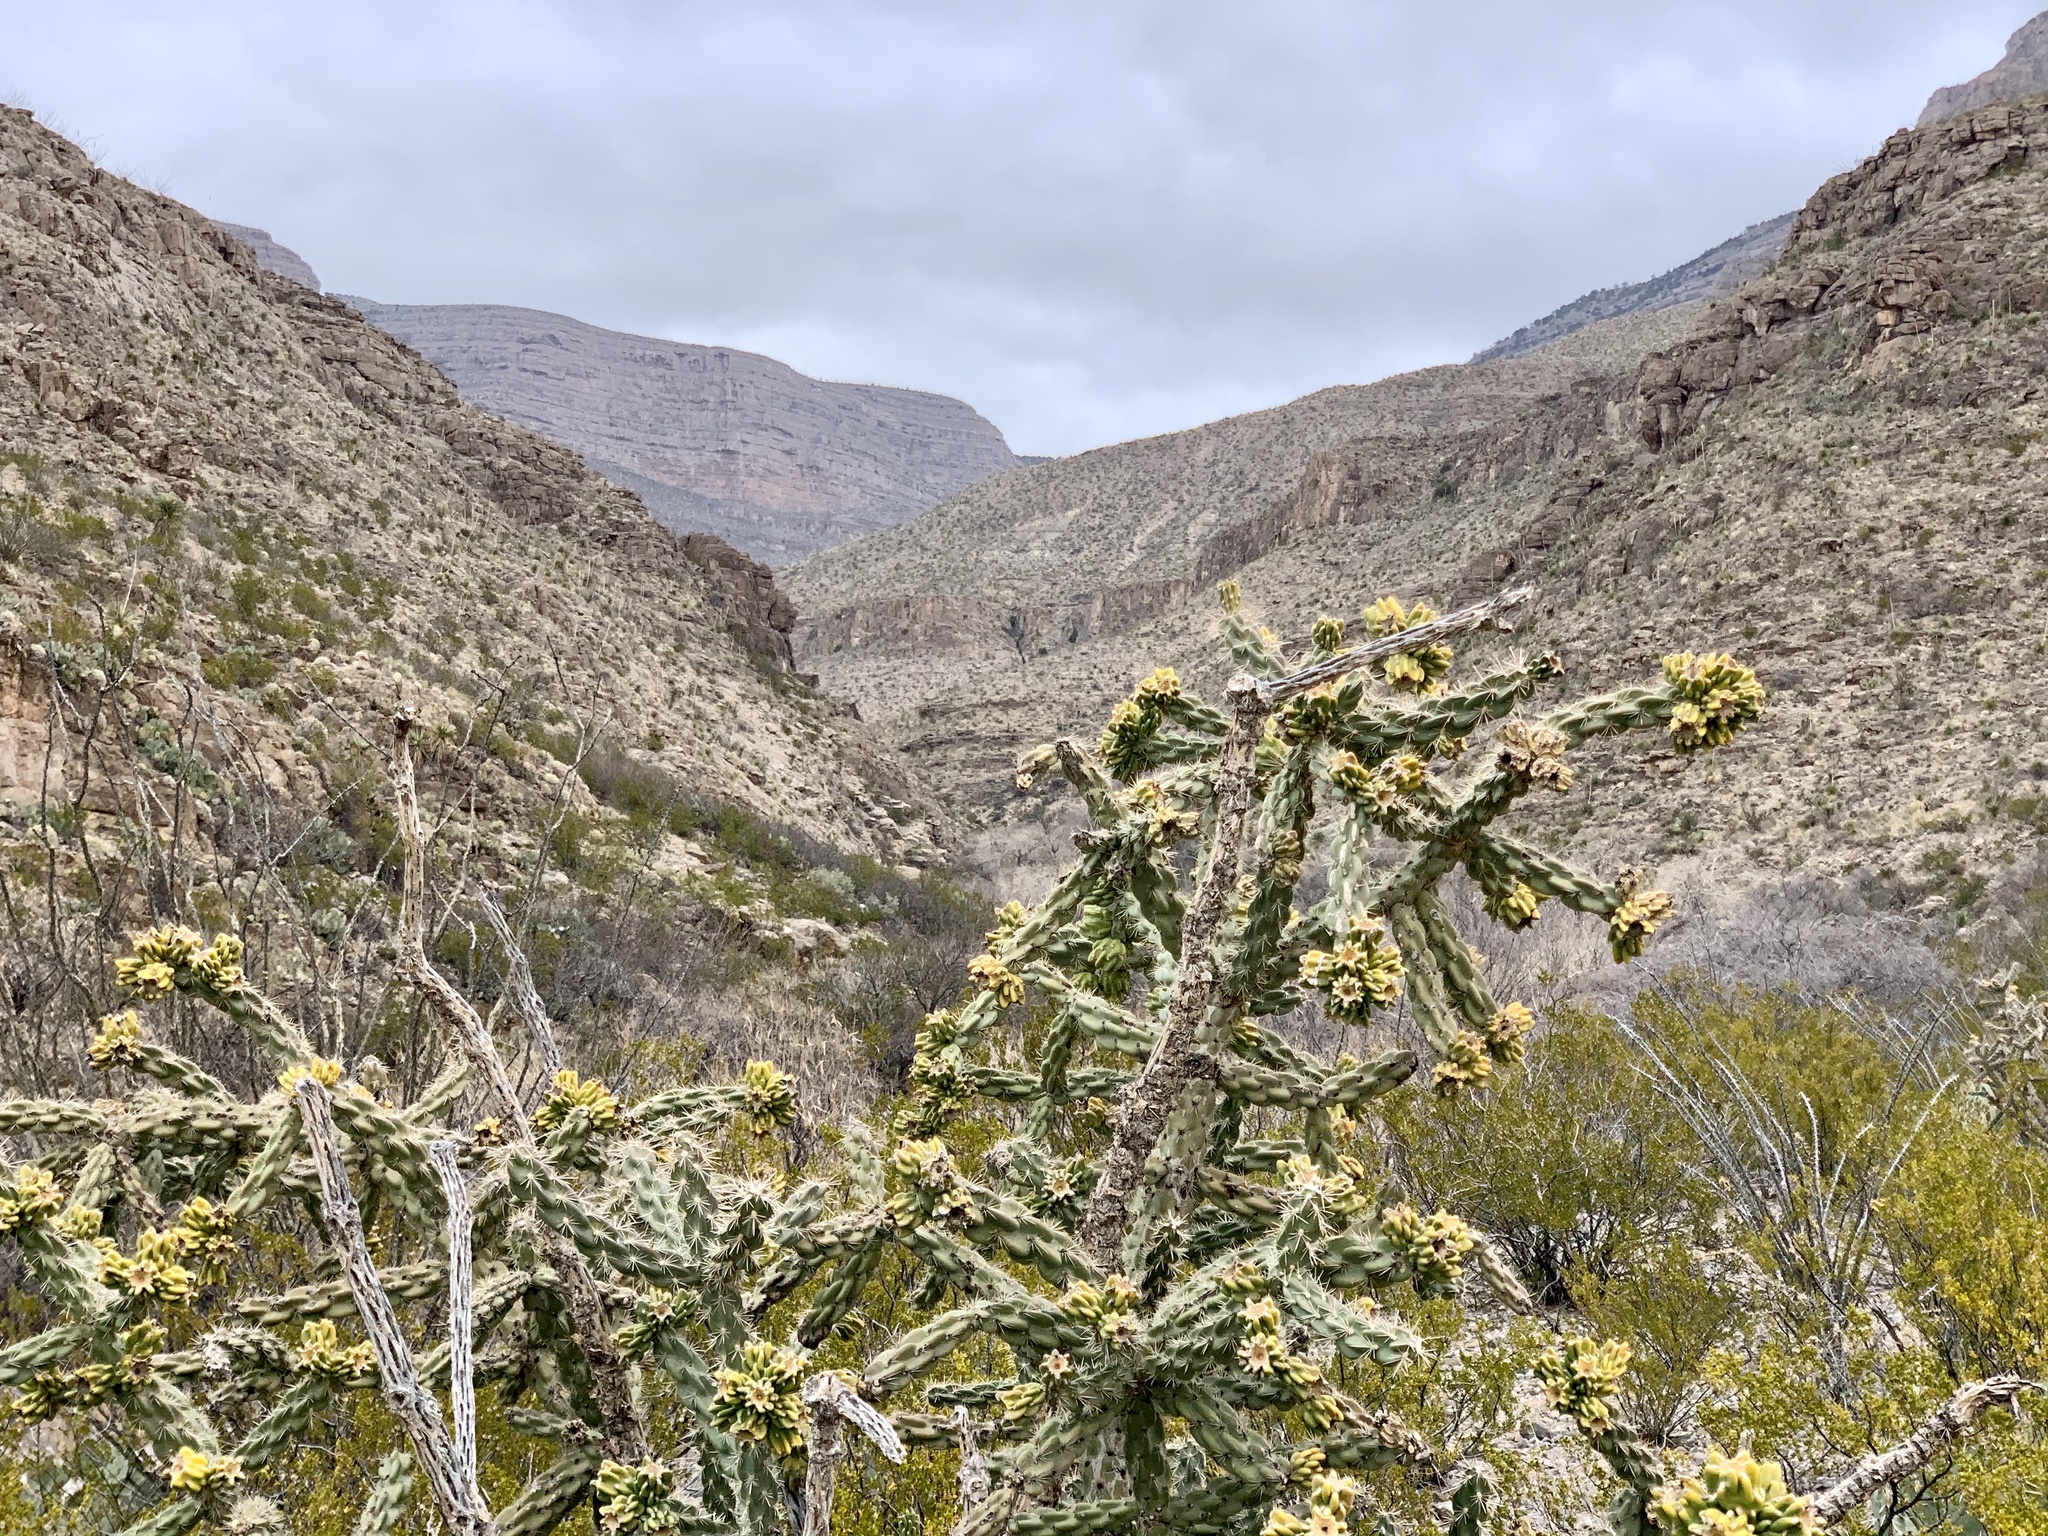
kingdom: Plantae
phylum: Tracheophyta
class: Magnoliopsida
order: Caryophyllales
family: Cactaceae
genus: Cylindropuntia
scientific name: Cylindropuntia imbricata
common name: Candelabrum cactus
